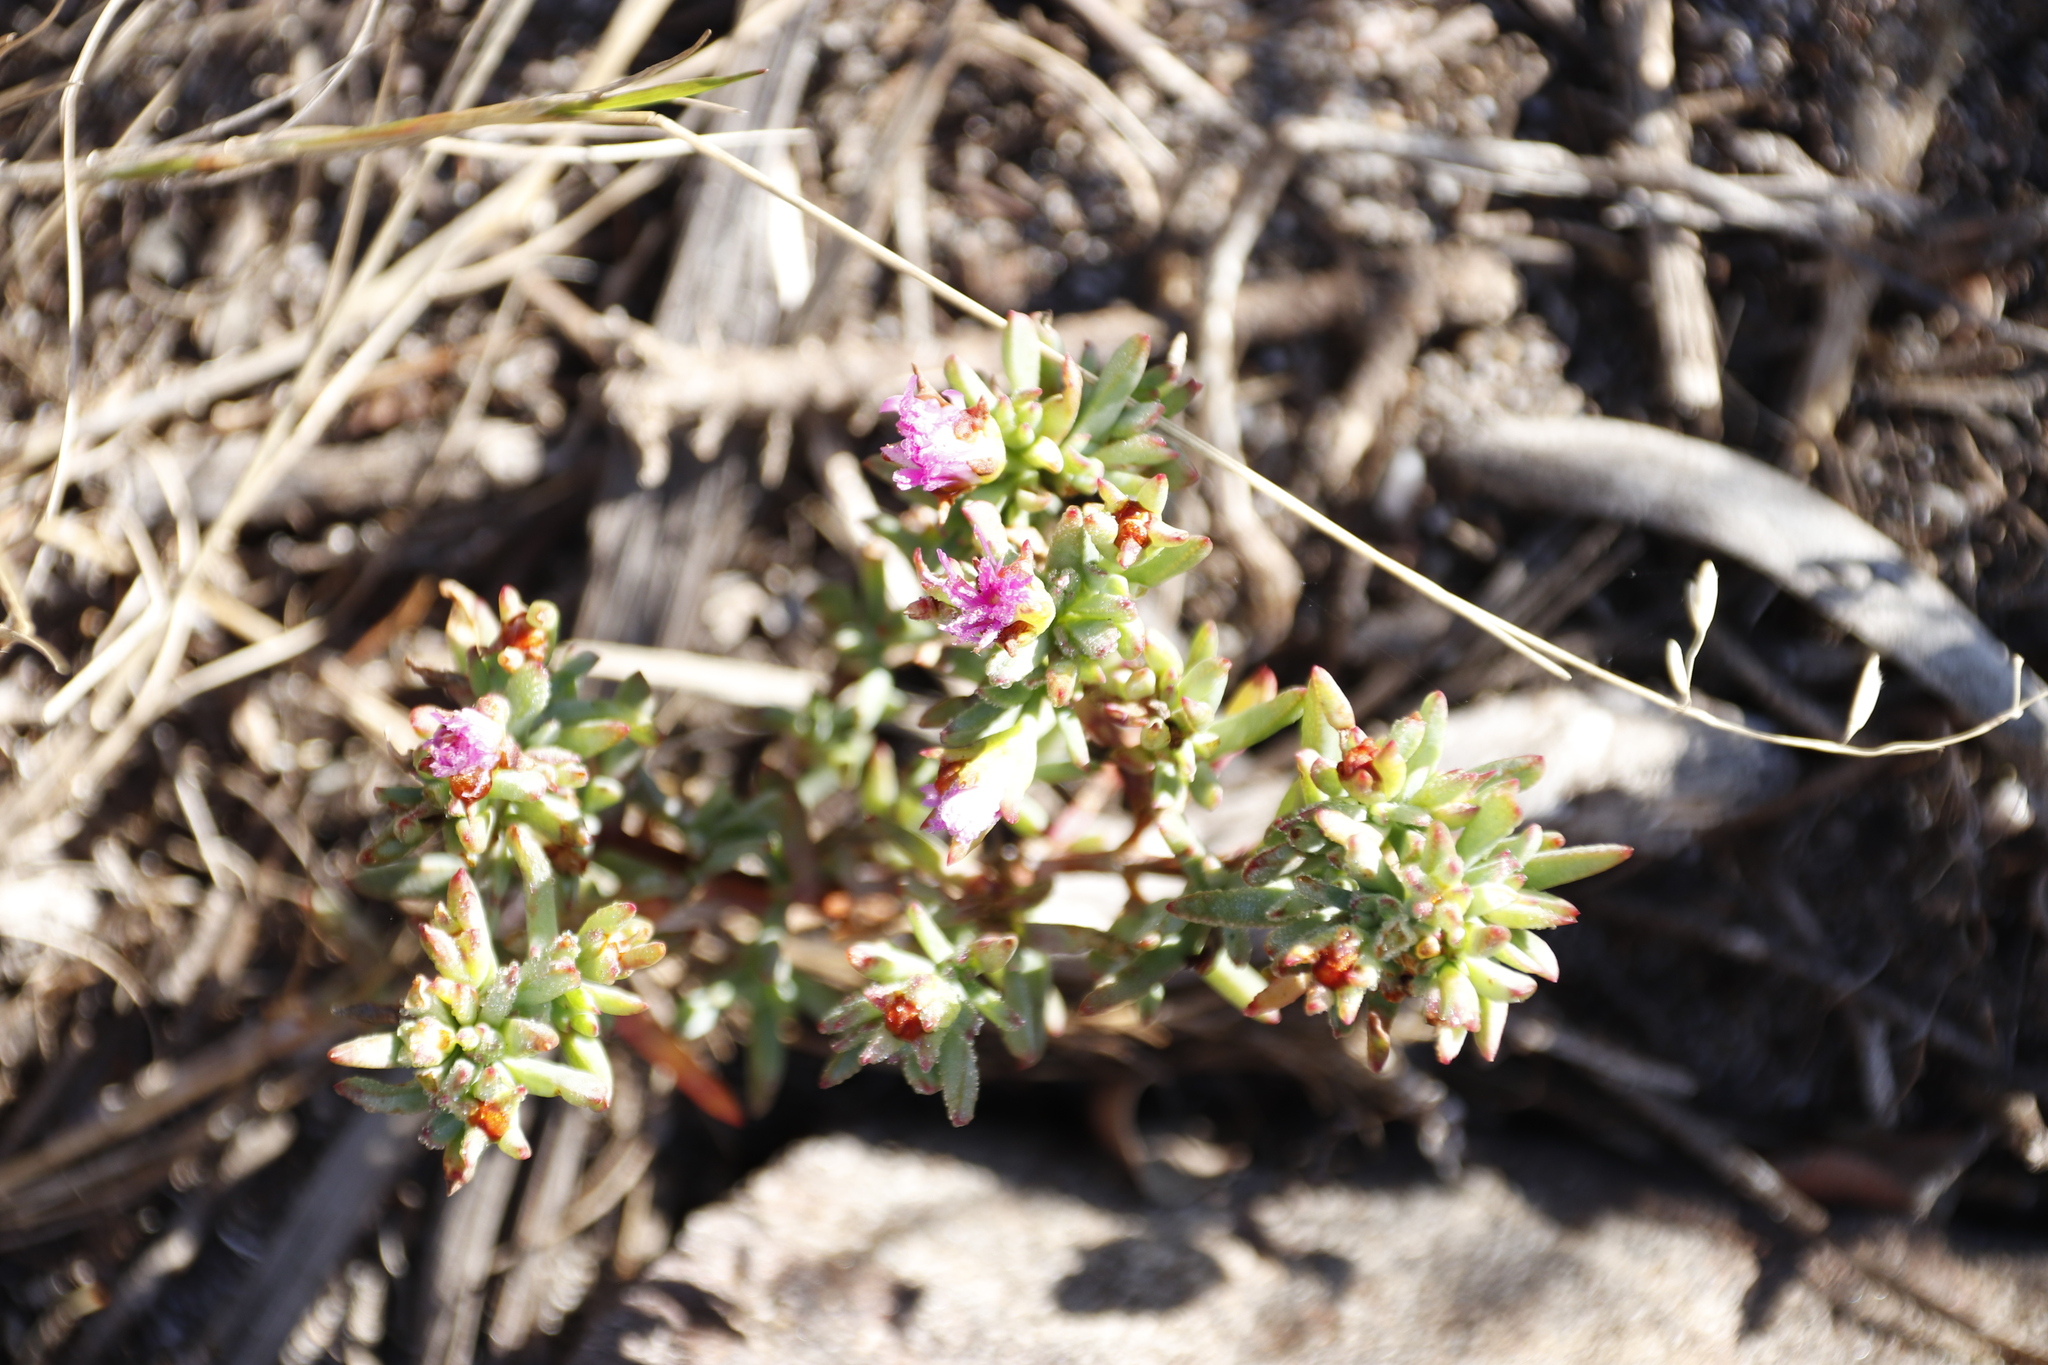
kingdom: Plantae
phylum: Tracheophyta
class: Magnoliopsida
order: Caryophyllales
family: Aizoaceae
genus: Lampranthus
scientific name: Lampranthus emarginatus
